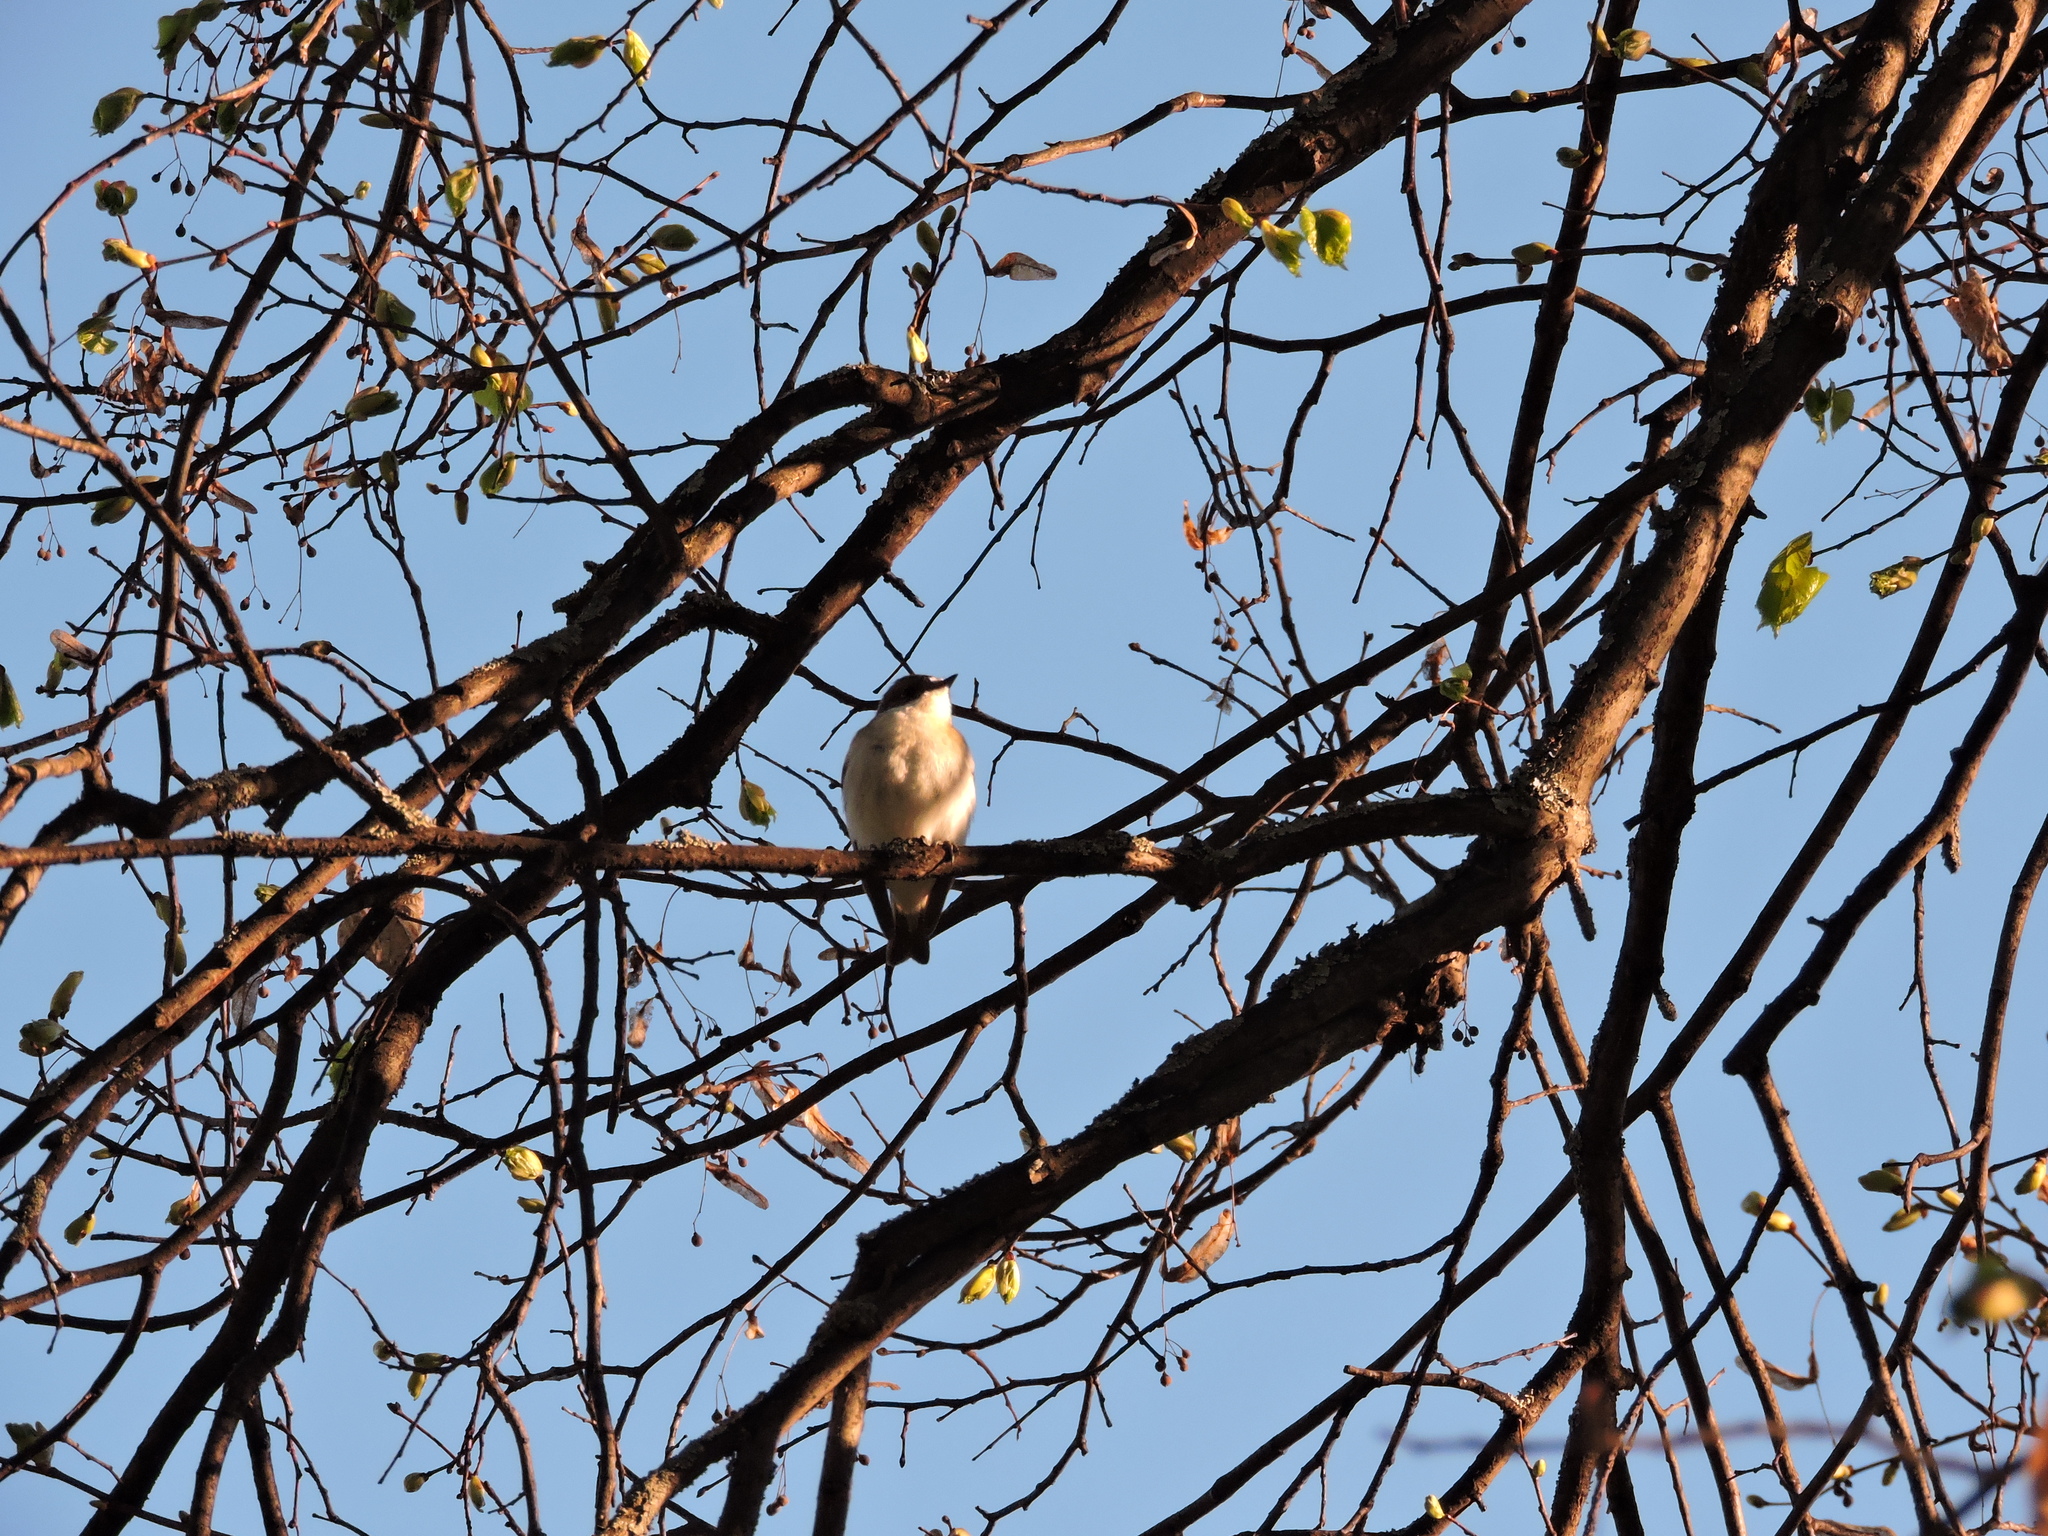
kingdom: Animalia
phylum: Chordata
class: Aves
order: Passeriformes
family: Muscicapidae
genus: Ficedula
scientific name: Ficedula hypoleuca
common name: European pied flycatcher
